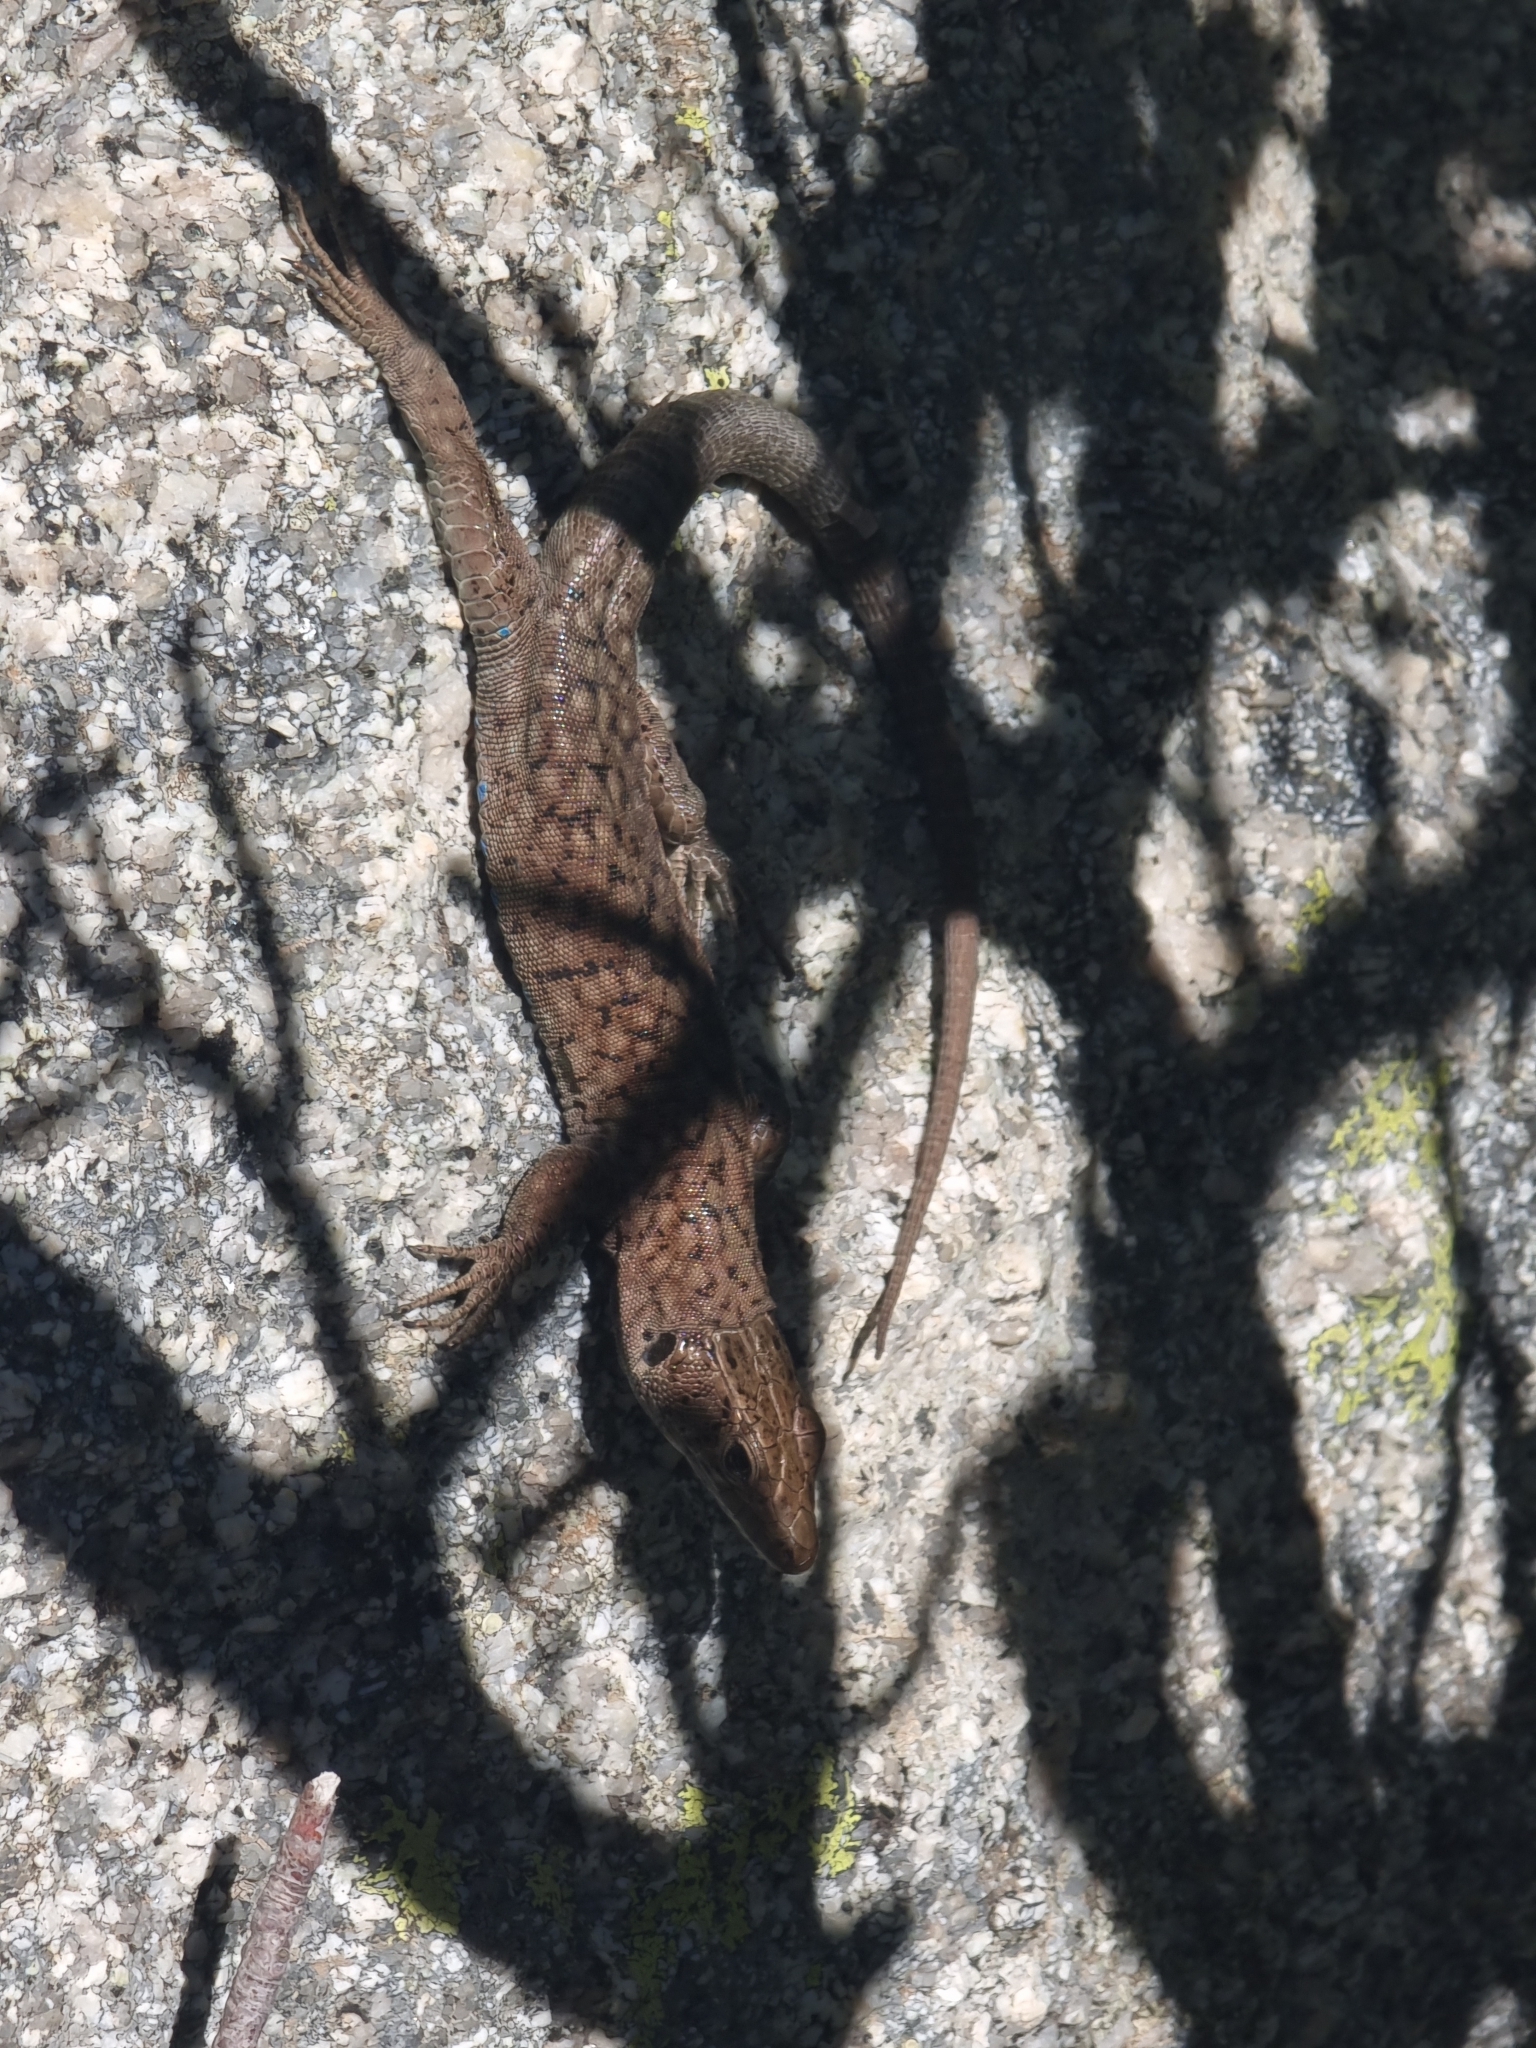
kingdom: Animalia
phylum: Chordata
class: Squamata
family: Lacertidae
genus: Archaeolacerta
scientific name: Archaeolacerta bedriagae
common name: Bedriaga's rock lizard
